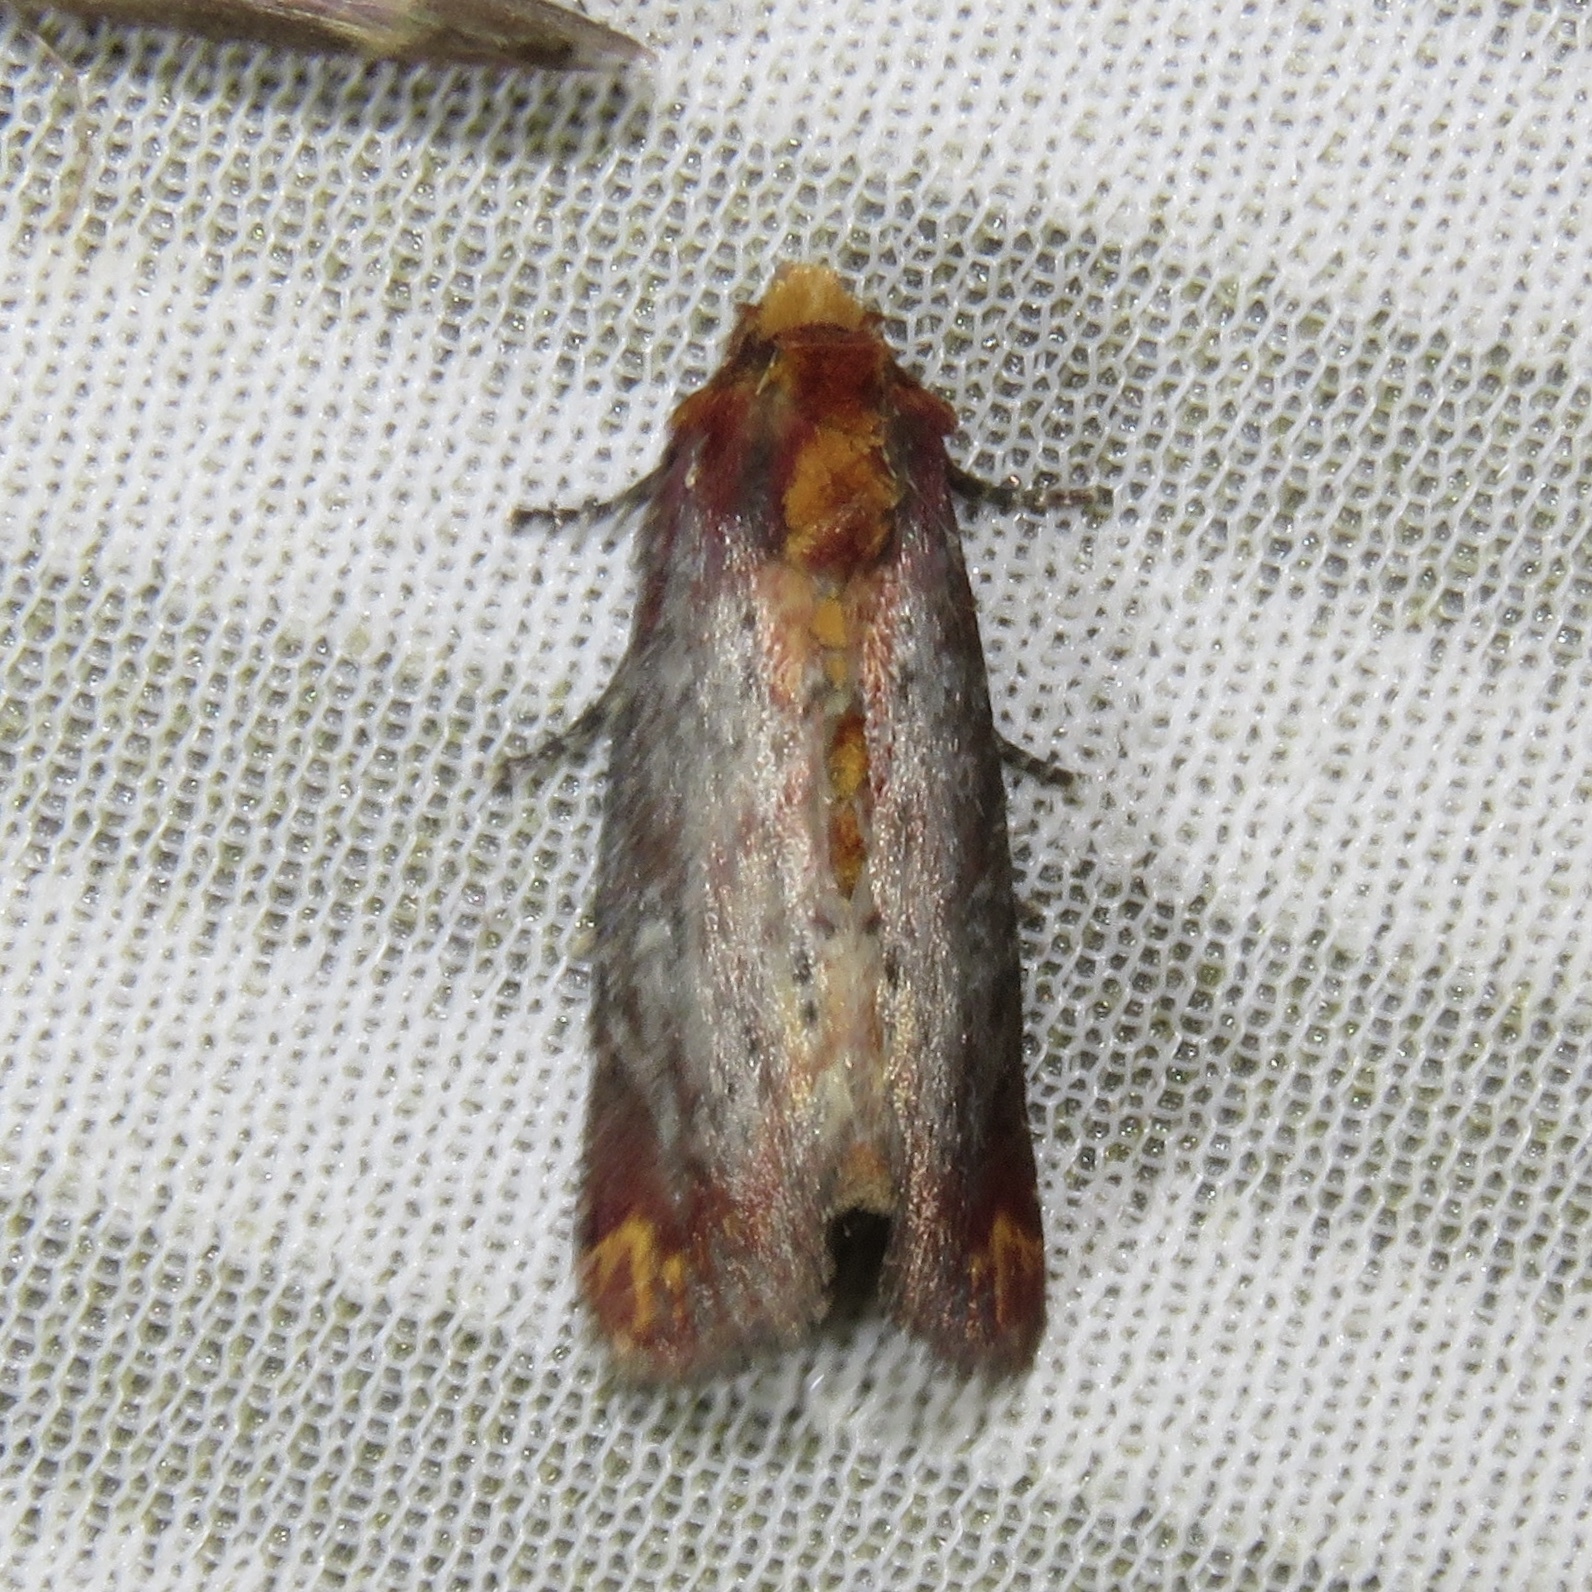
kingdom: Animalia
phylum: Arthropoda
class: Insecta
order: Lepidoptera
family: Noctuidae
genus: Achatodes
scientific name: Achatodes zeae
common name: Elder shoot borer
